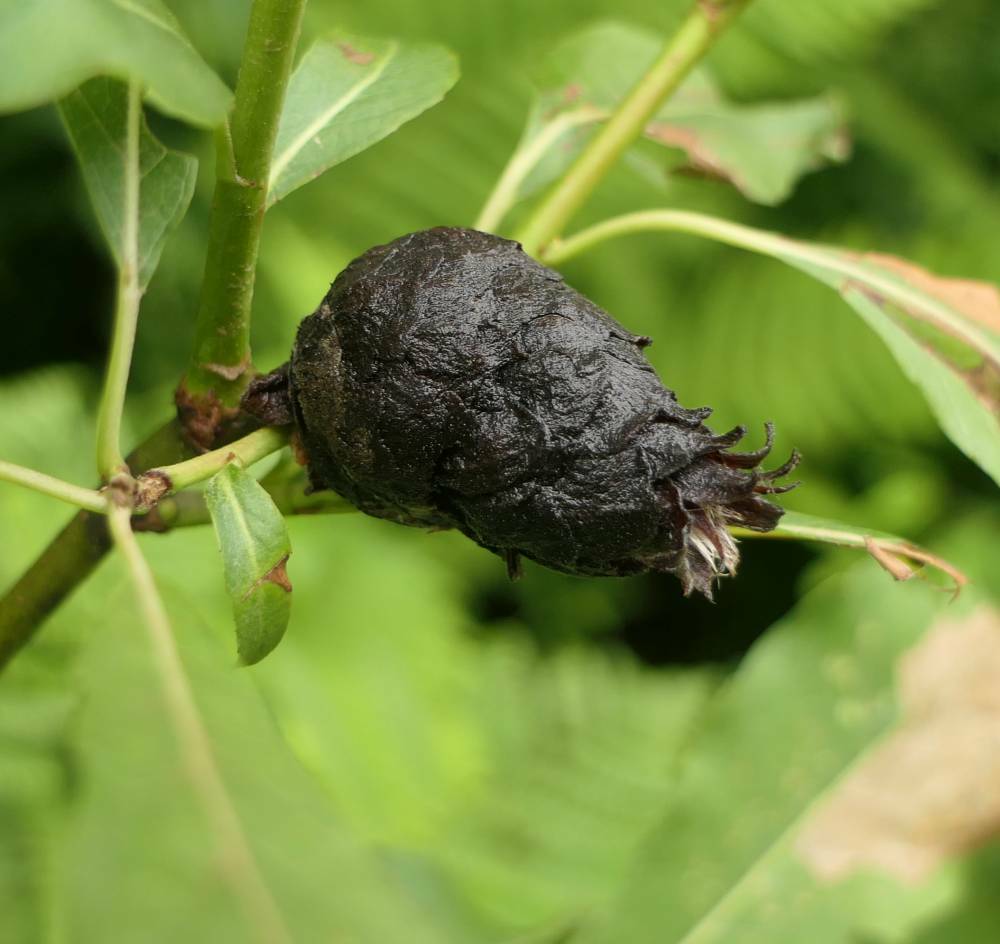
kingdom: Animalia
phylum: Arthropoda
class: Insecta
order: Diptera
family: Cecidomyiidae
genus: Rabdophaga
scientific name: Rabdophaga strobiloides
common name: Willow pinecone gall midge
